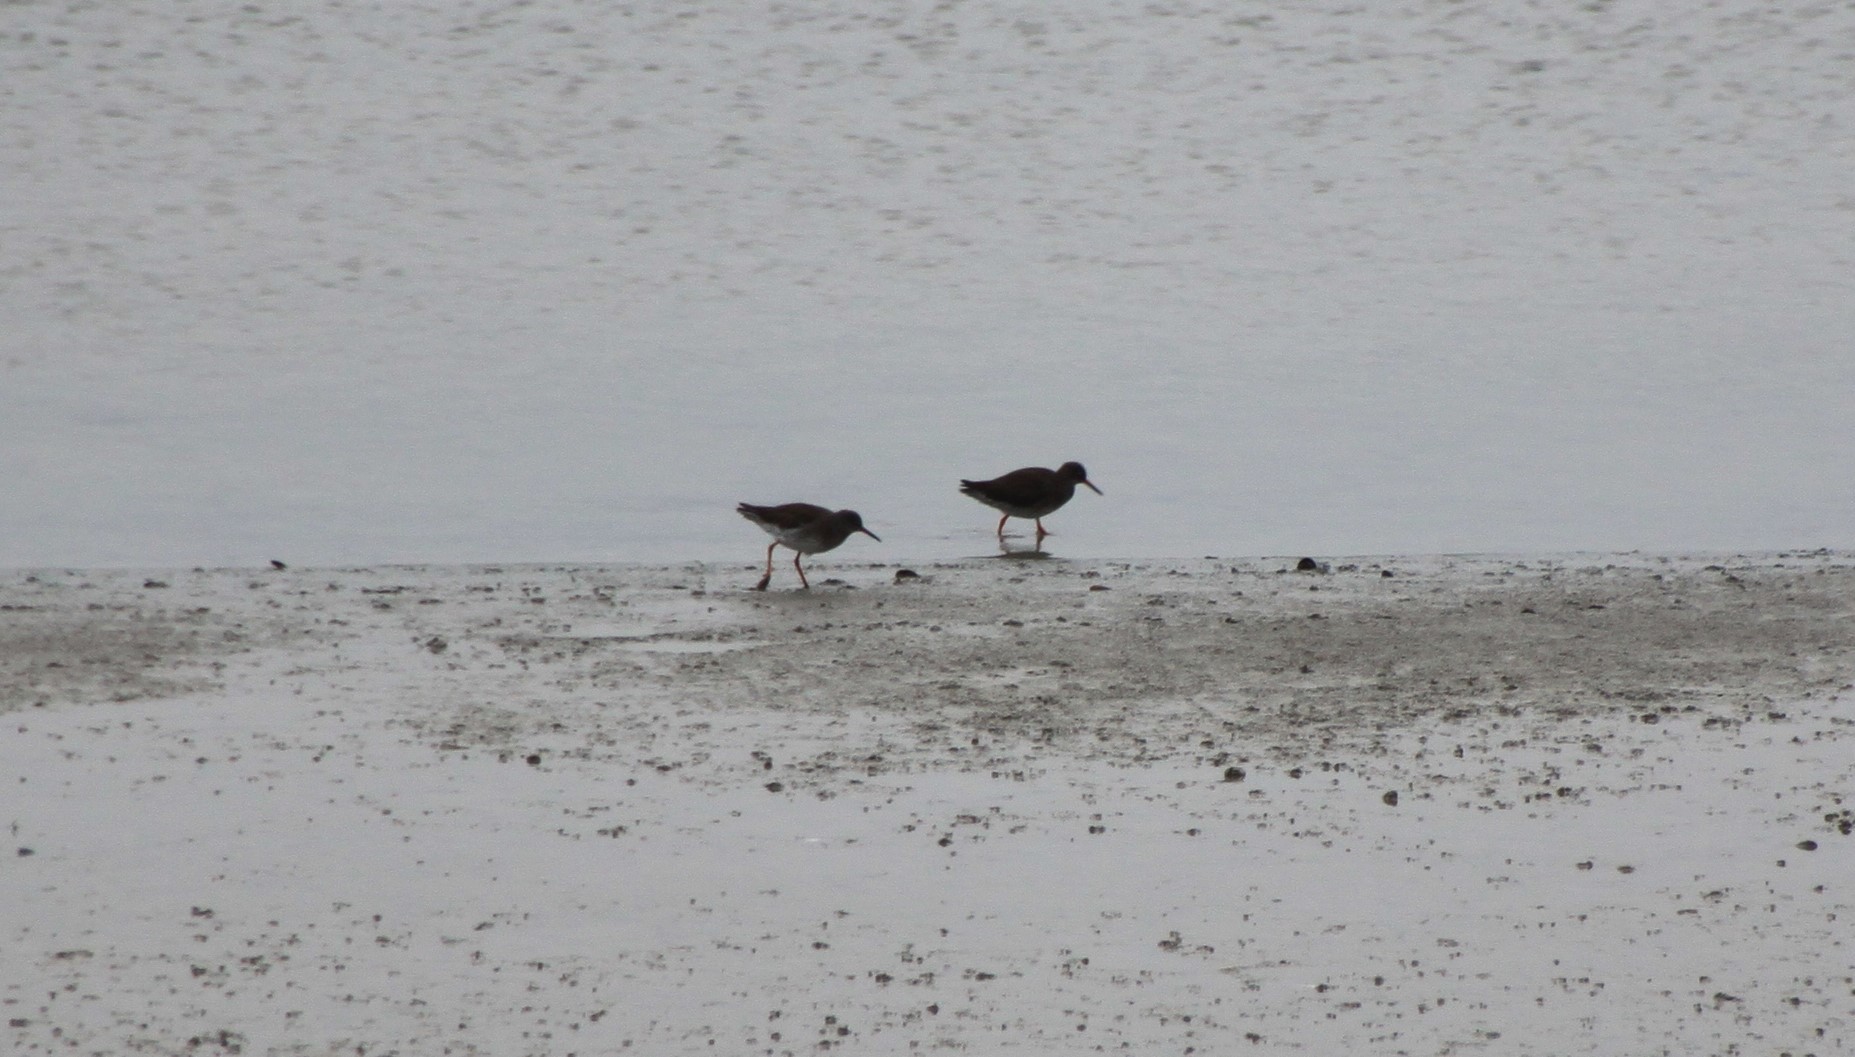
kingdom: Animalia
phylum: Chordata
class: Aves
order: Charadriiformes
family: Scolopacidae
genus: Tringa
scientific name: Tringa totanus
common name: Common redshank
